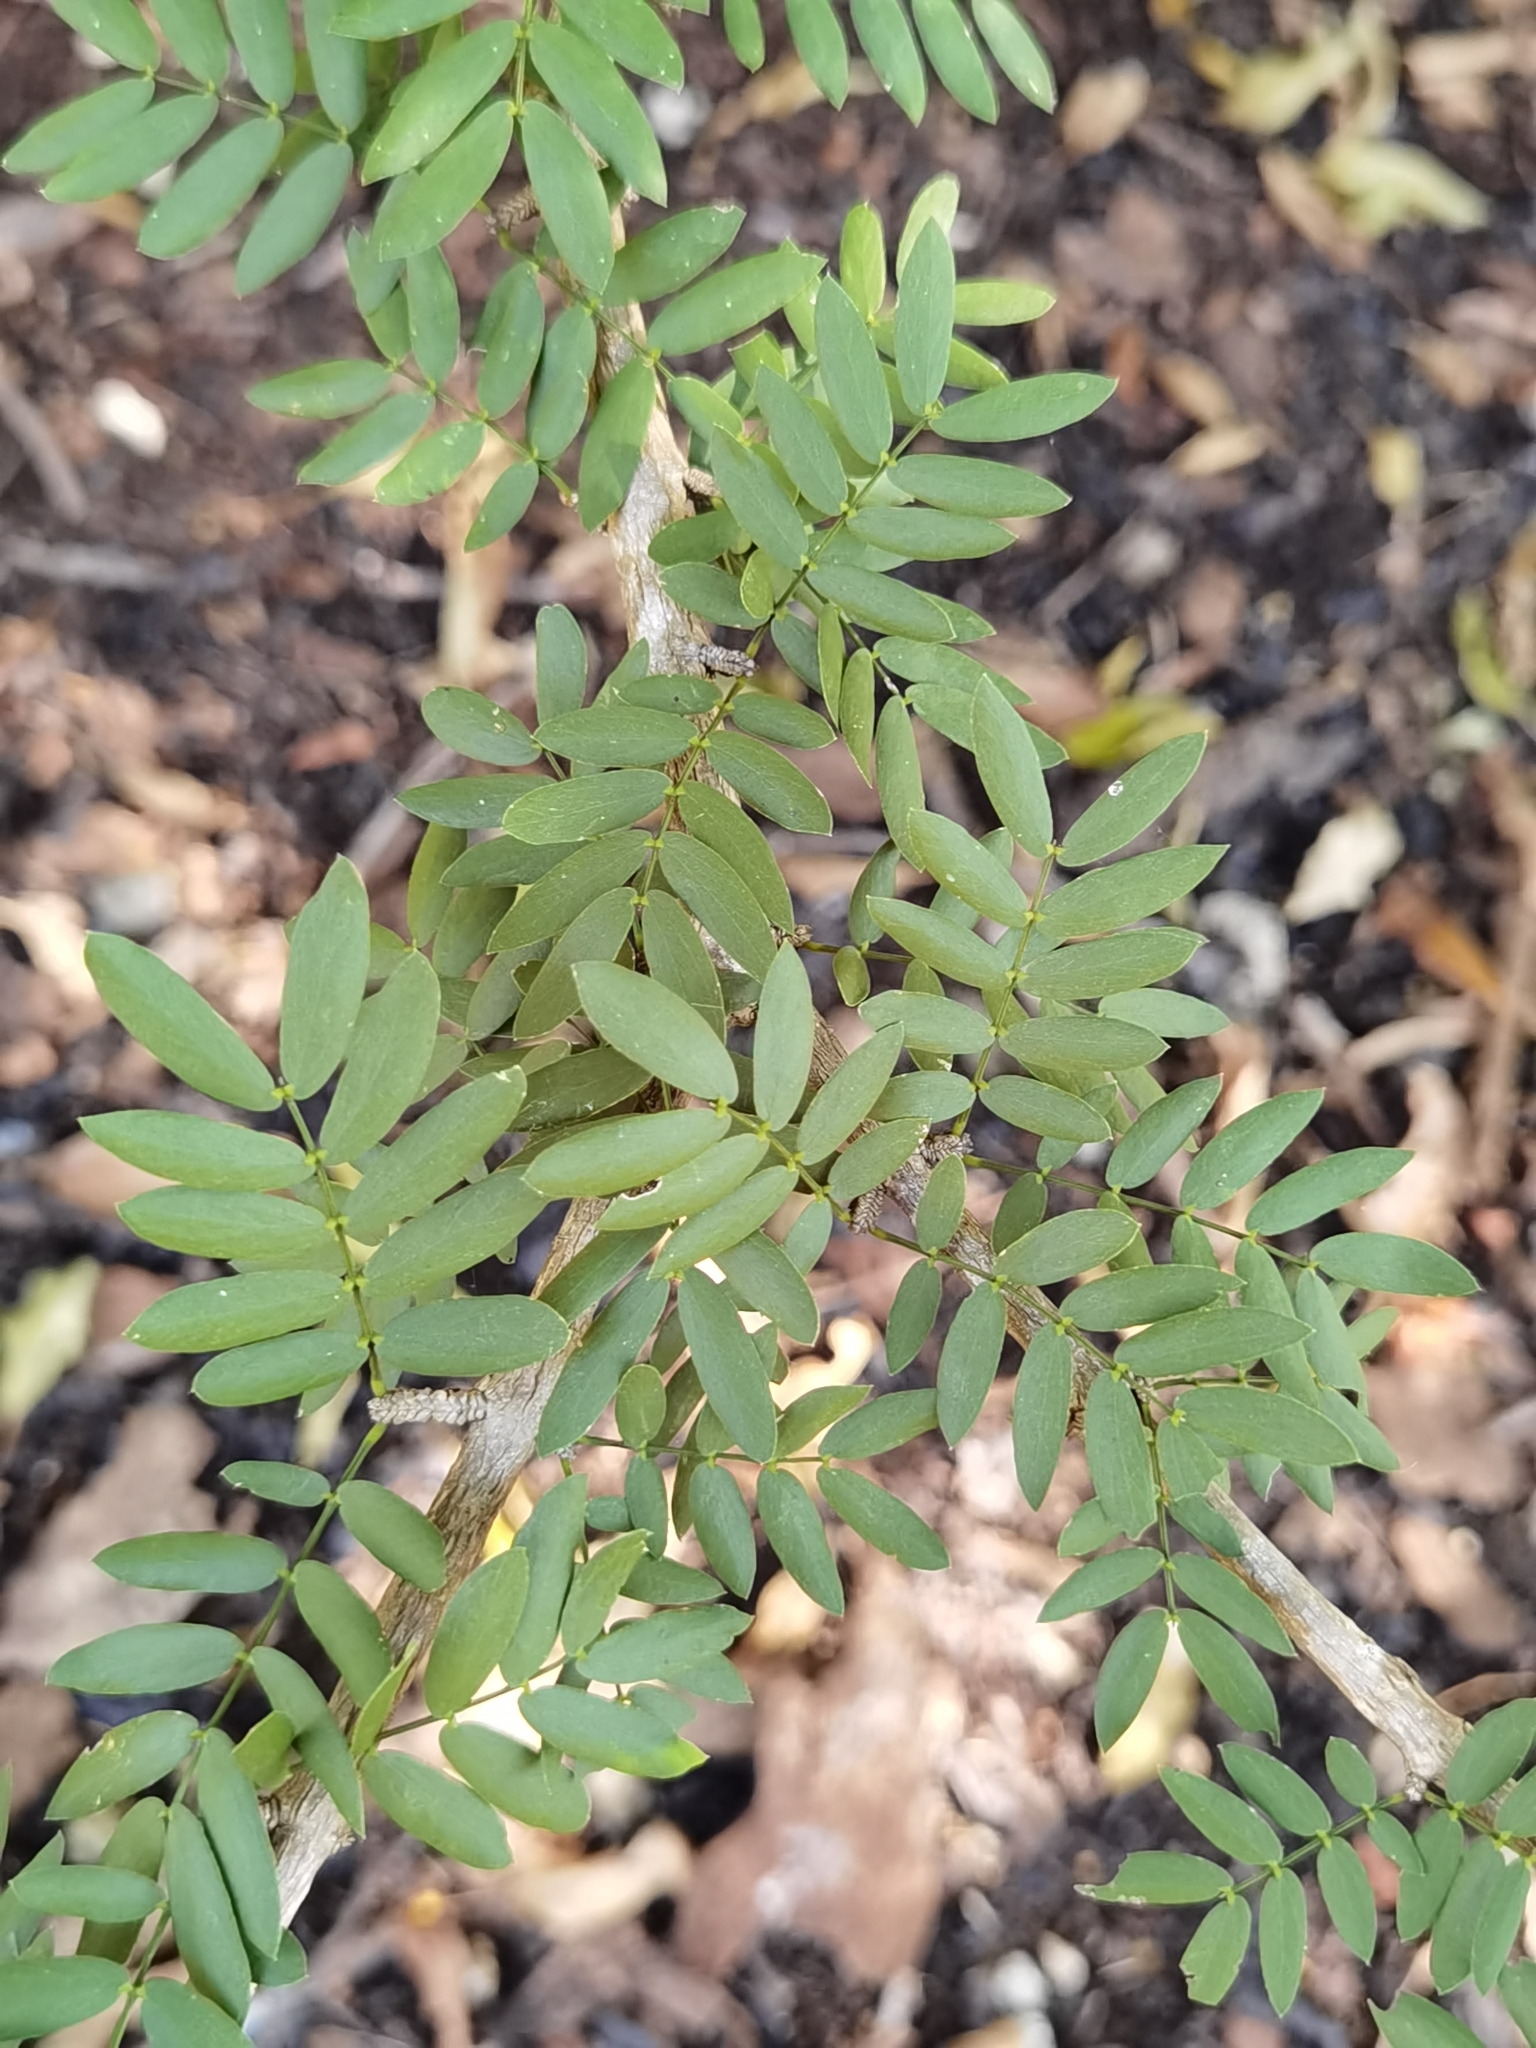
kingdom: Plantae
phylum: Tracheophyta
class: Magnoliopsida
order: Zygophyllales
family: Zygophyllaceae
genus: Guaiacum
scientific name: Guaiacum sanctum
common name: Holywood
